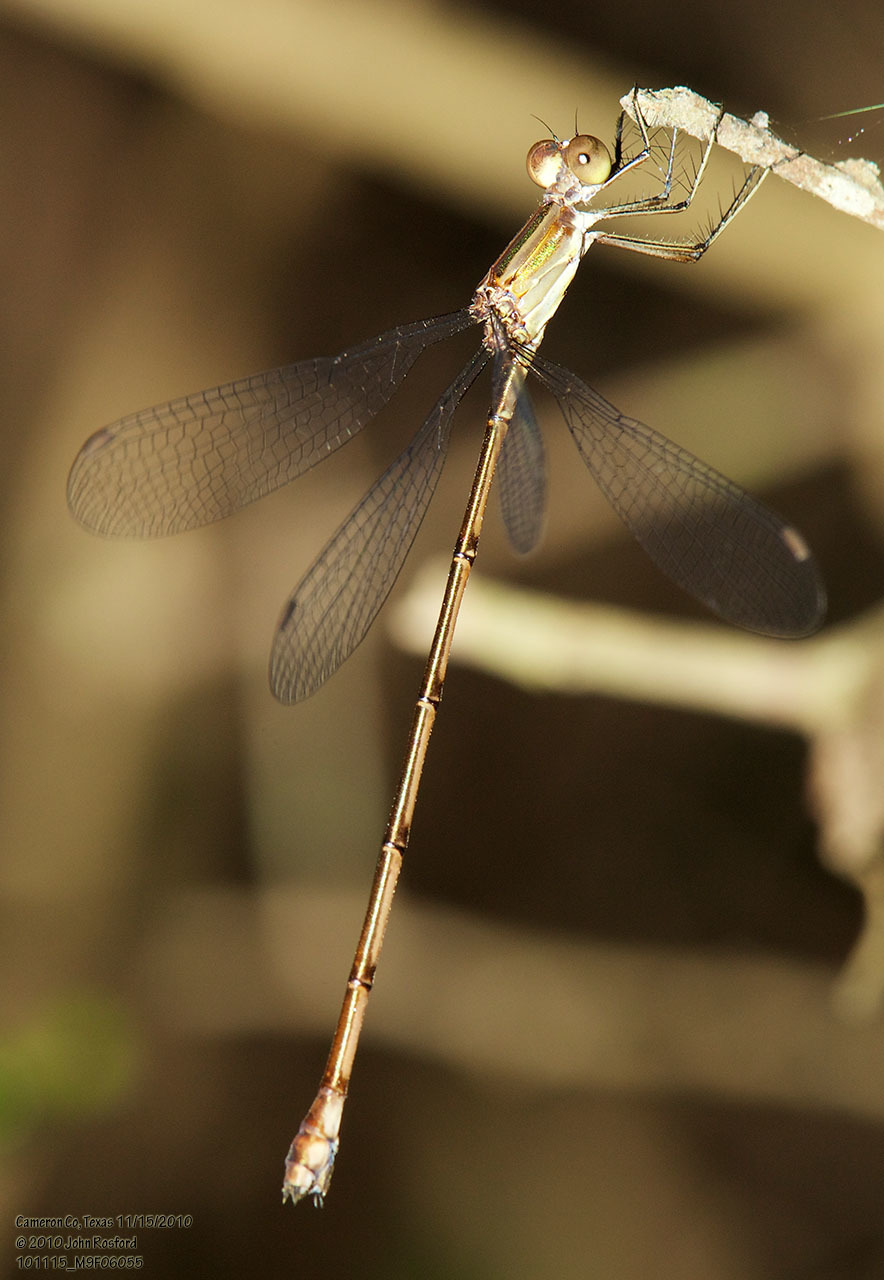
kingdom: Animalia
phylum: Arthropoda
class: Insecta
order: Odonata
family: Lestidae
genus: Lestes
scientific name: Lestes forficula
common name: Rainpool spreadwing
